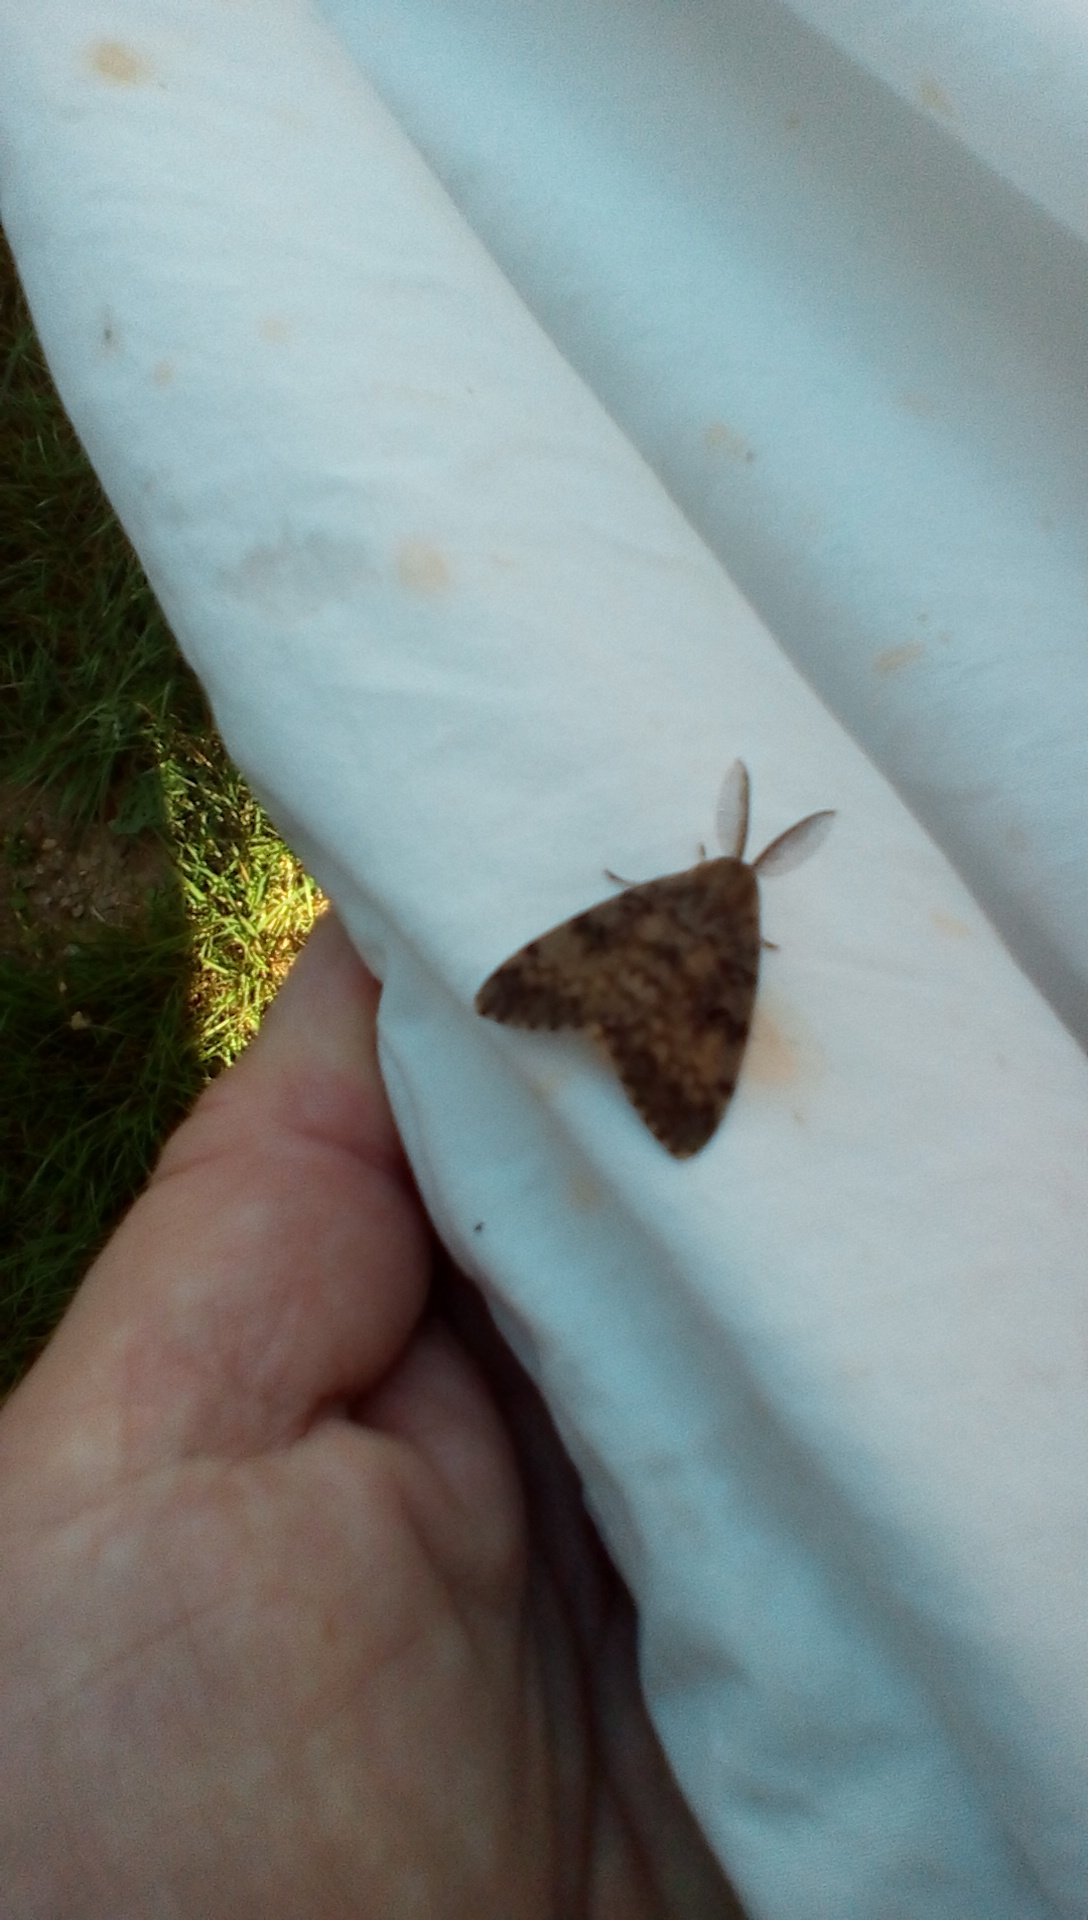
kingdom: Animalia
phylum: Arthropoda
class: Insecta
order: Lepidoptera
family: Erebidae
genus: Lymantria
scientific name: Lymantria dispar
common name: Gypsy moth
